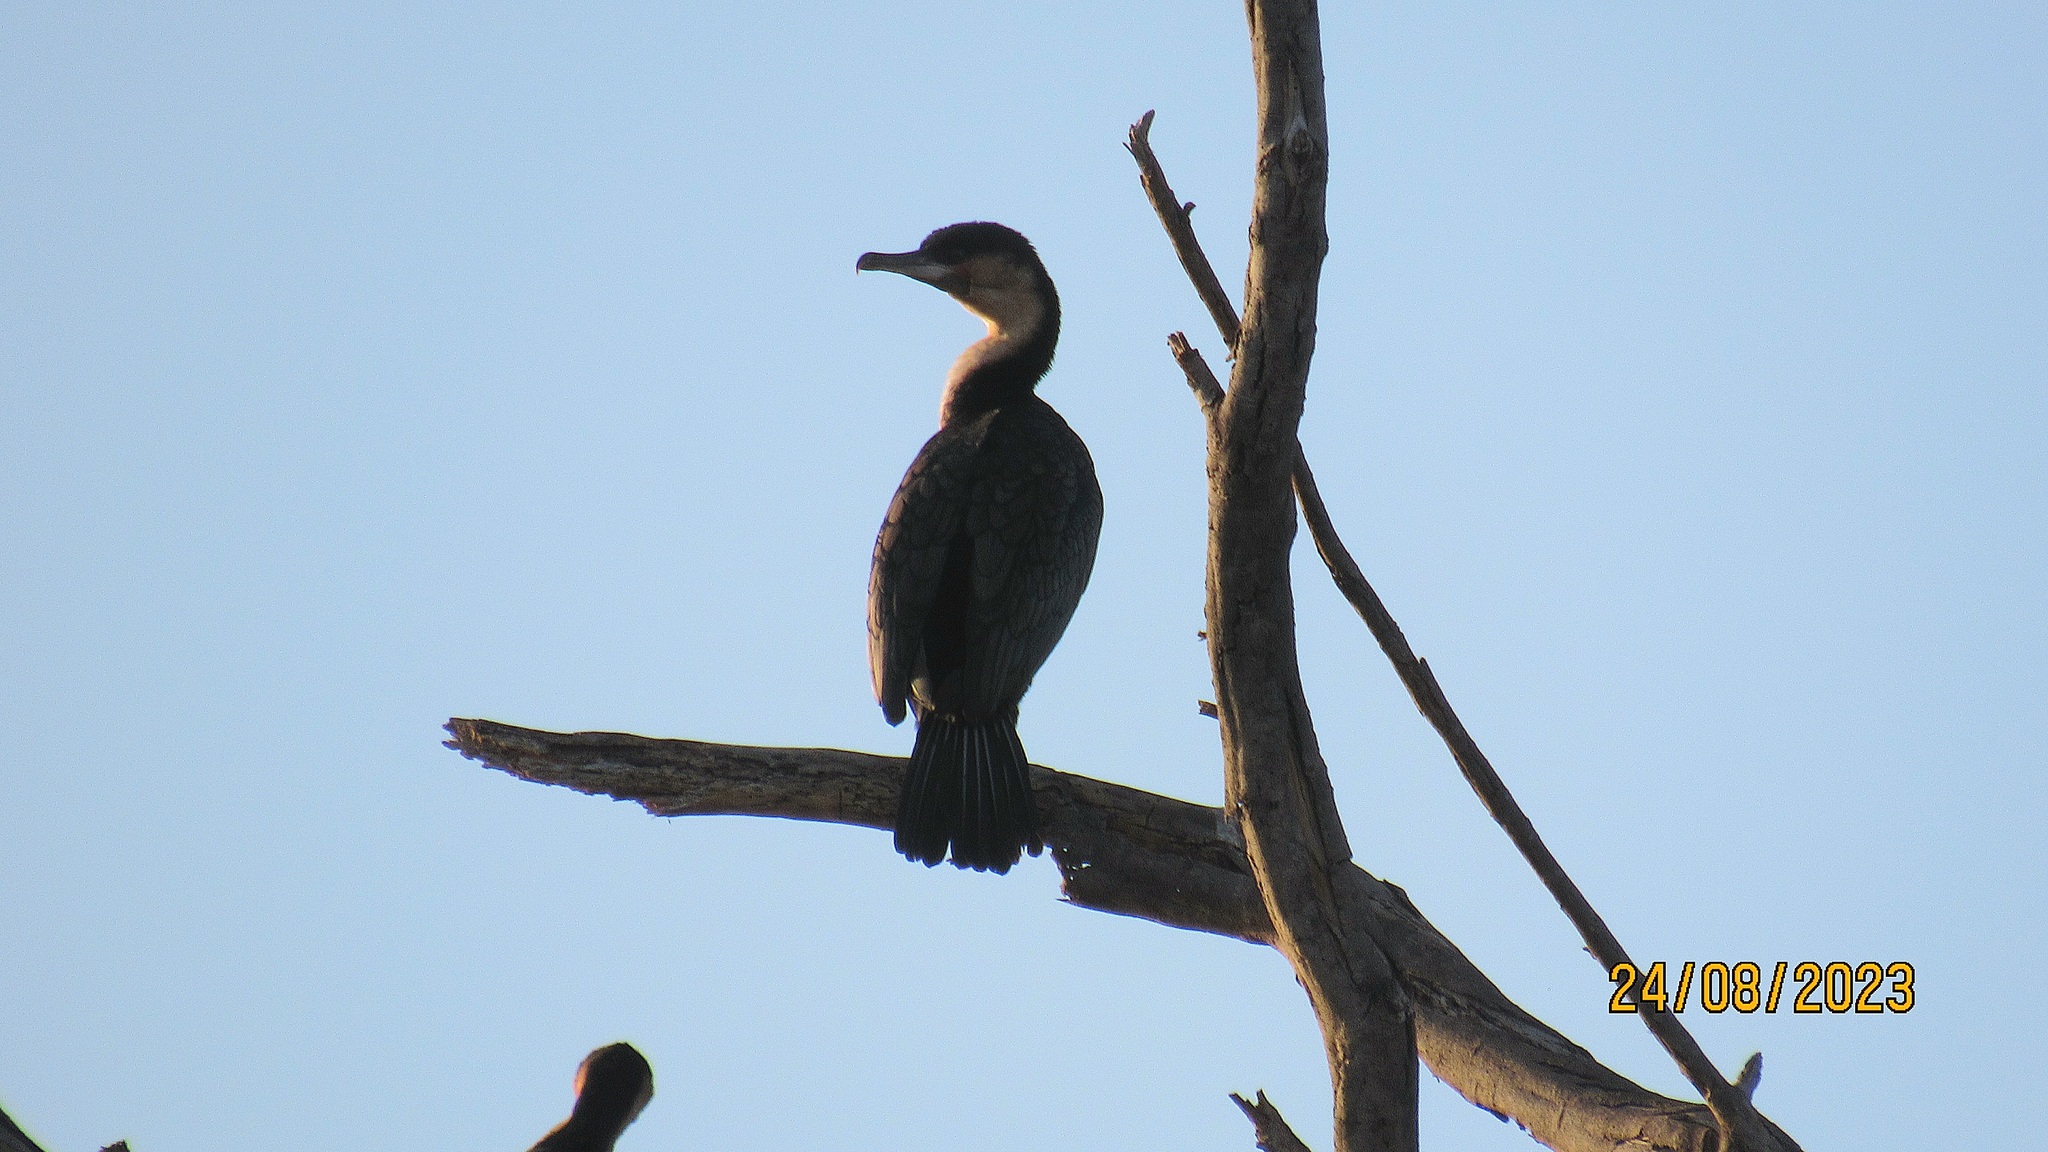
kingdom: Animalia
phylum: Chordata
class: Aves
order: Suliformes
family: Phalacrocoracidae
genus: Phalacrocorax
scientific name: Phalacrocorax carbo
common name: Great cormorant
